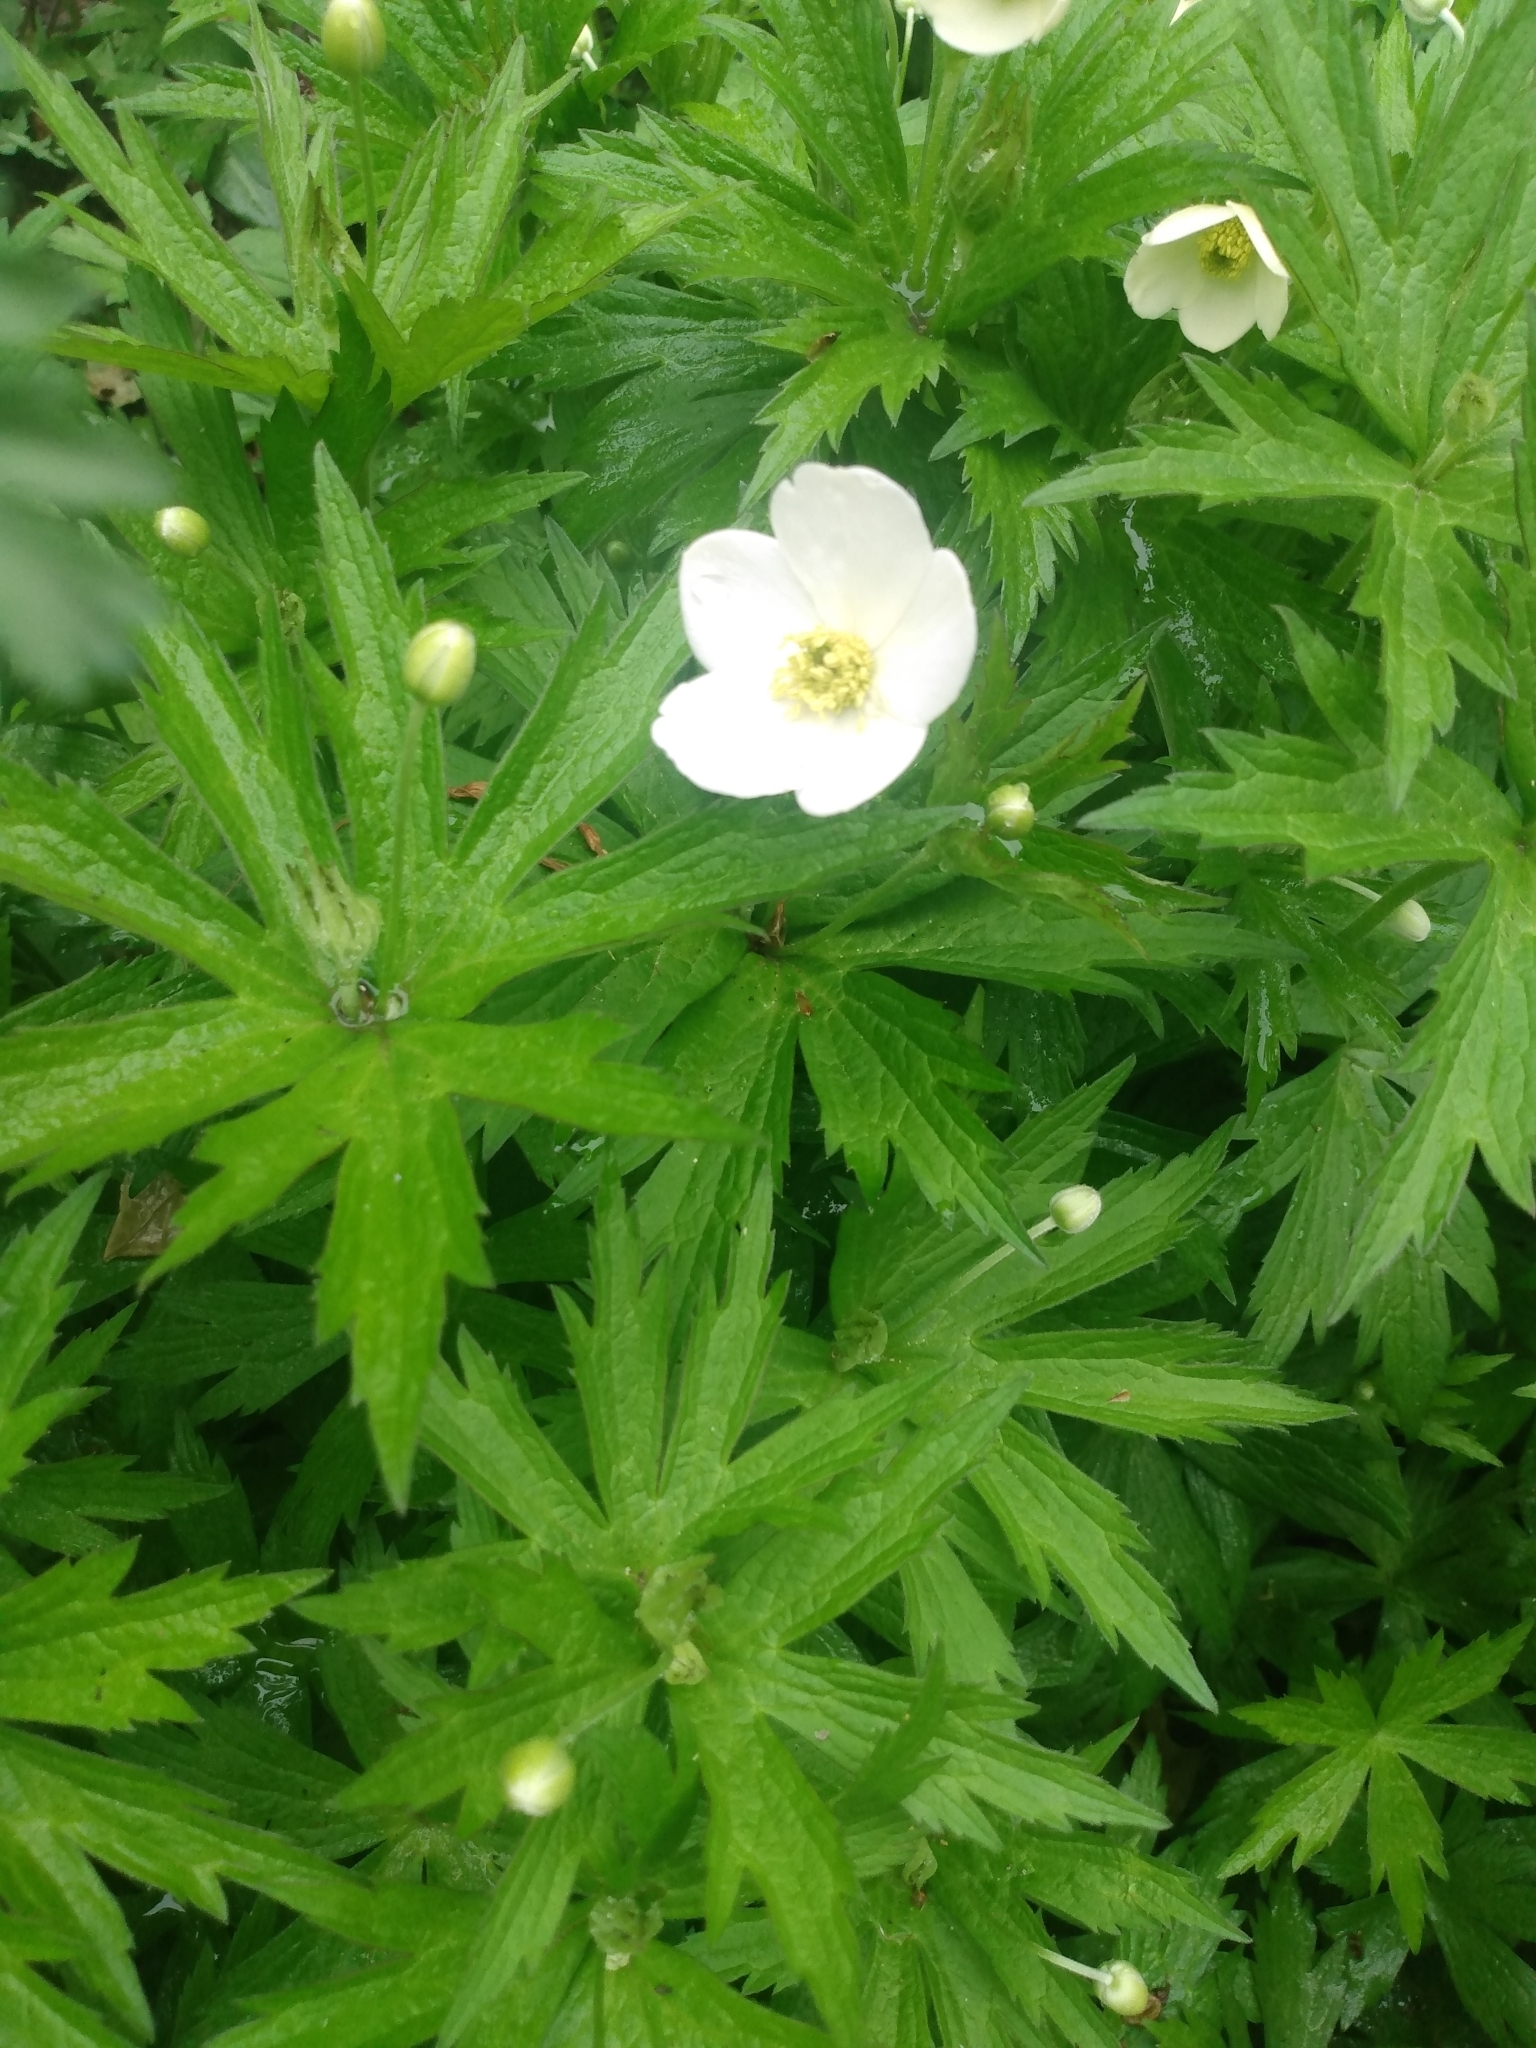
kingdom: Plantae
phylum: Tracheophyta
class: Magnoliopsida
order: Ranunculales
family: Ranunculaceae
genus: Anemonastrum
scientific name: Anemonastrum canadense
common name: Canada anemone
